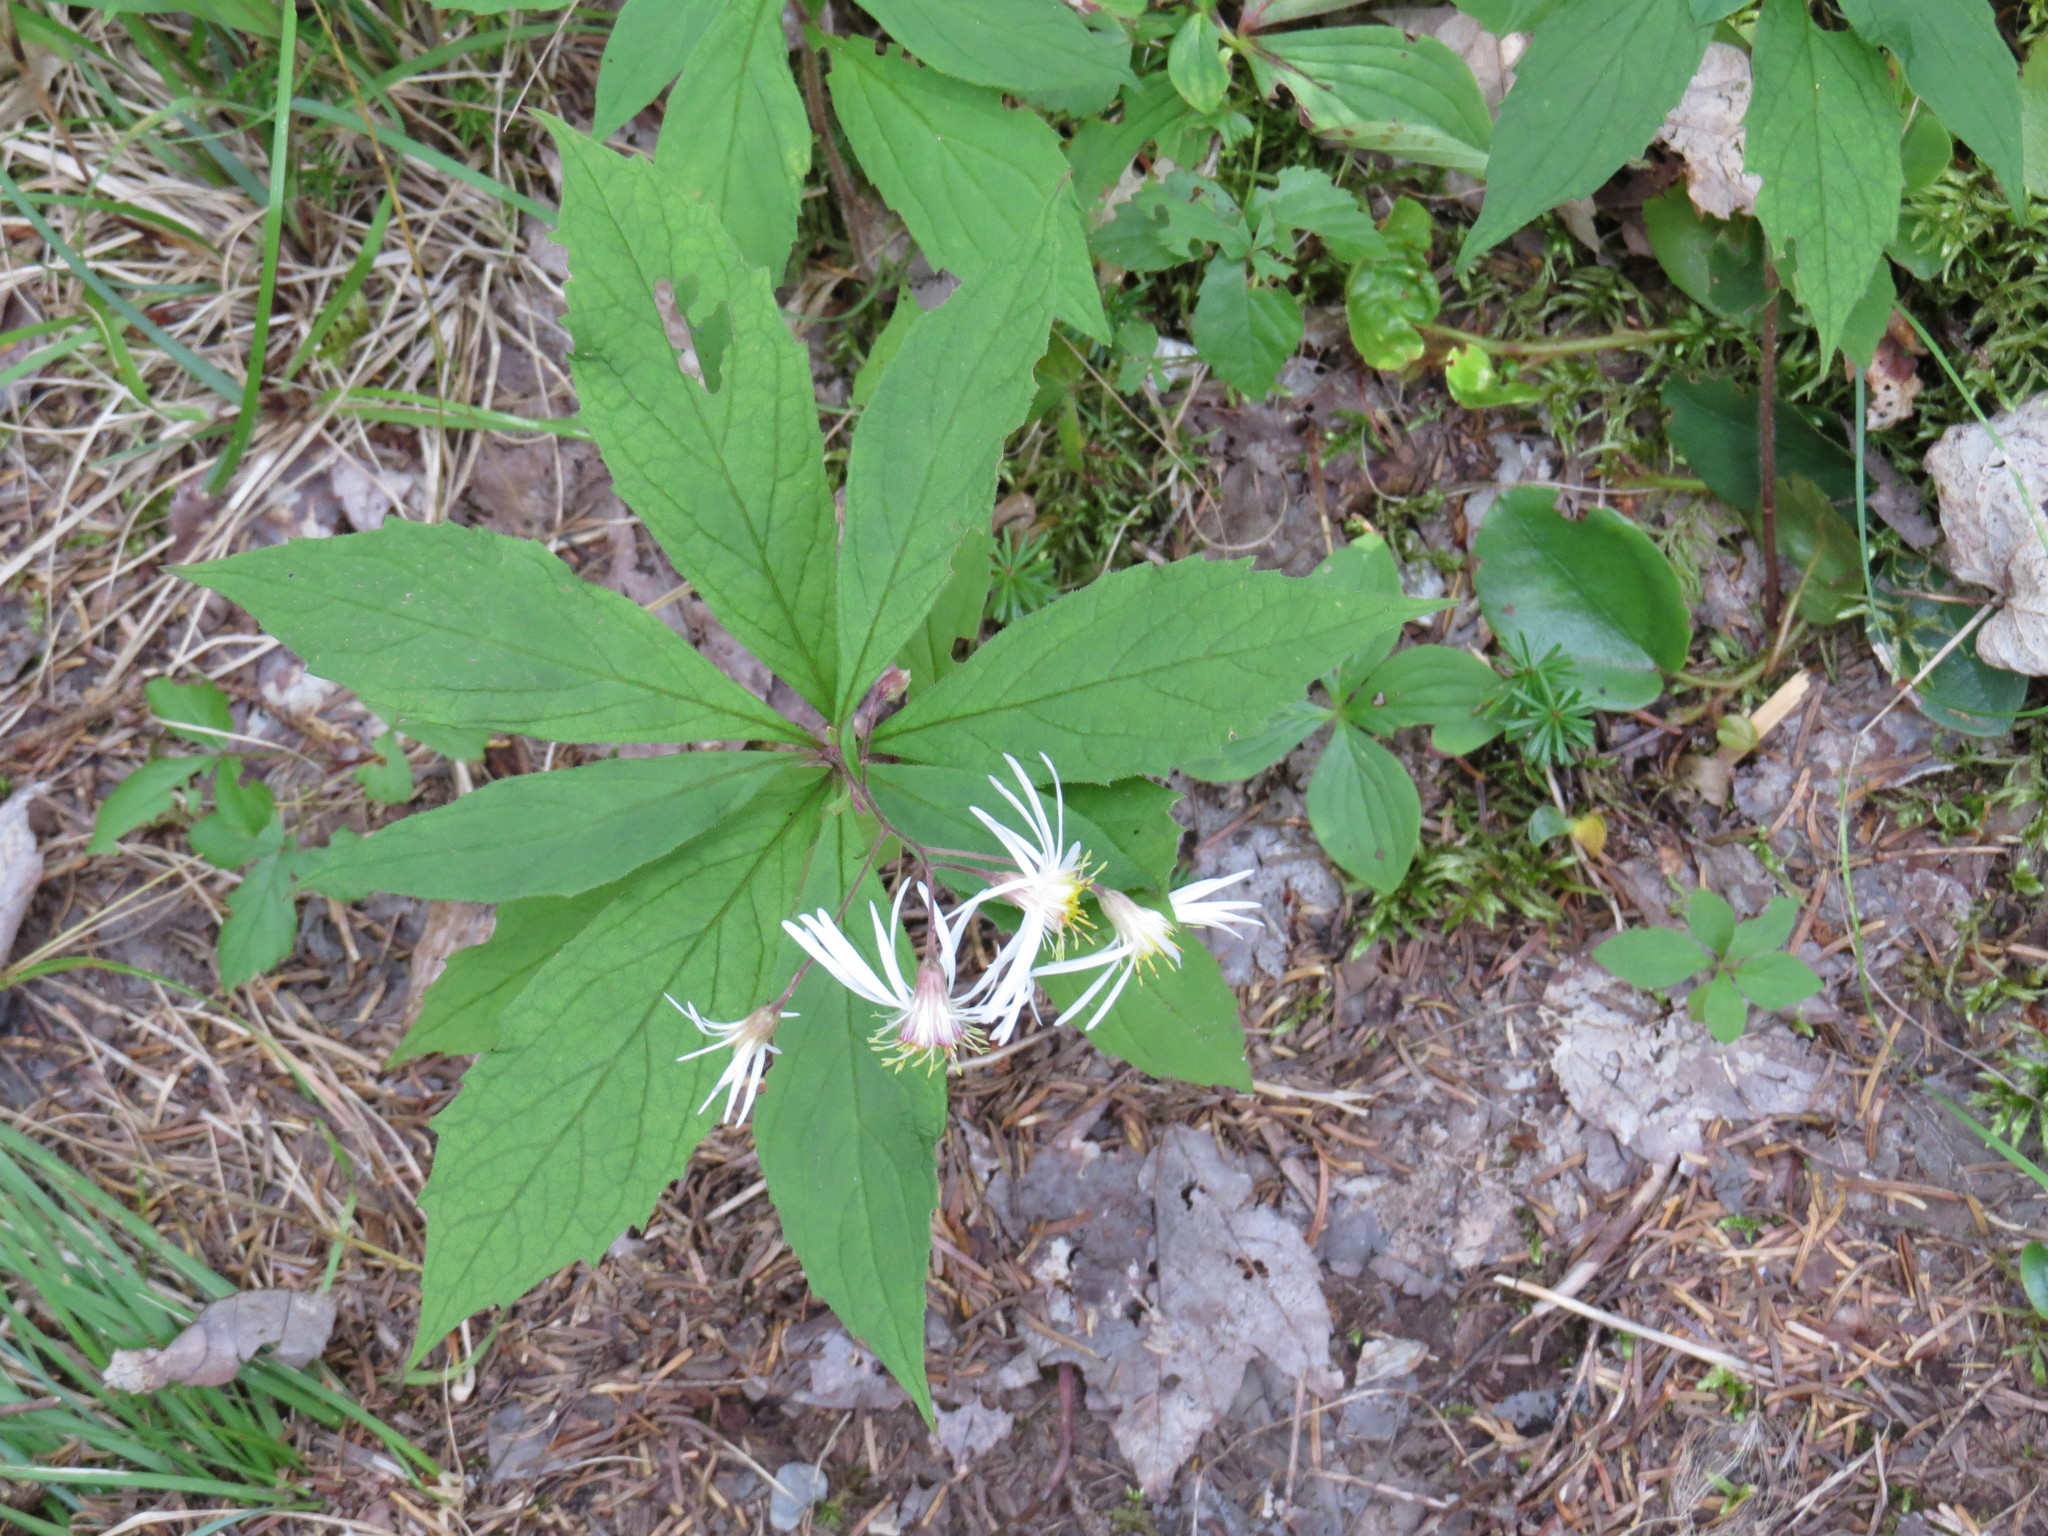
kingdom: Plantae
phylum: Tracheophyta
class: Magnoliopsida
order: Asterales
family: Asteraceae
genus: Oclemena
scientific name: Oclemena acuminata
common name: Mountain aster
